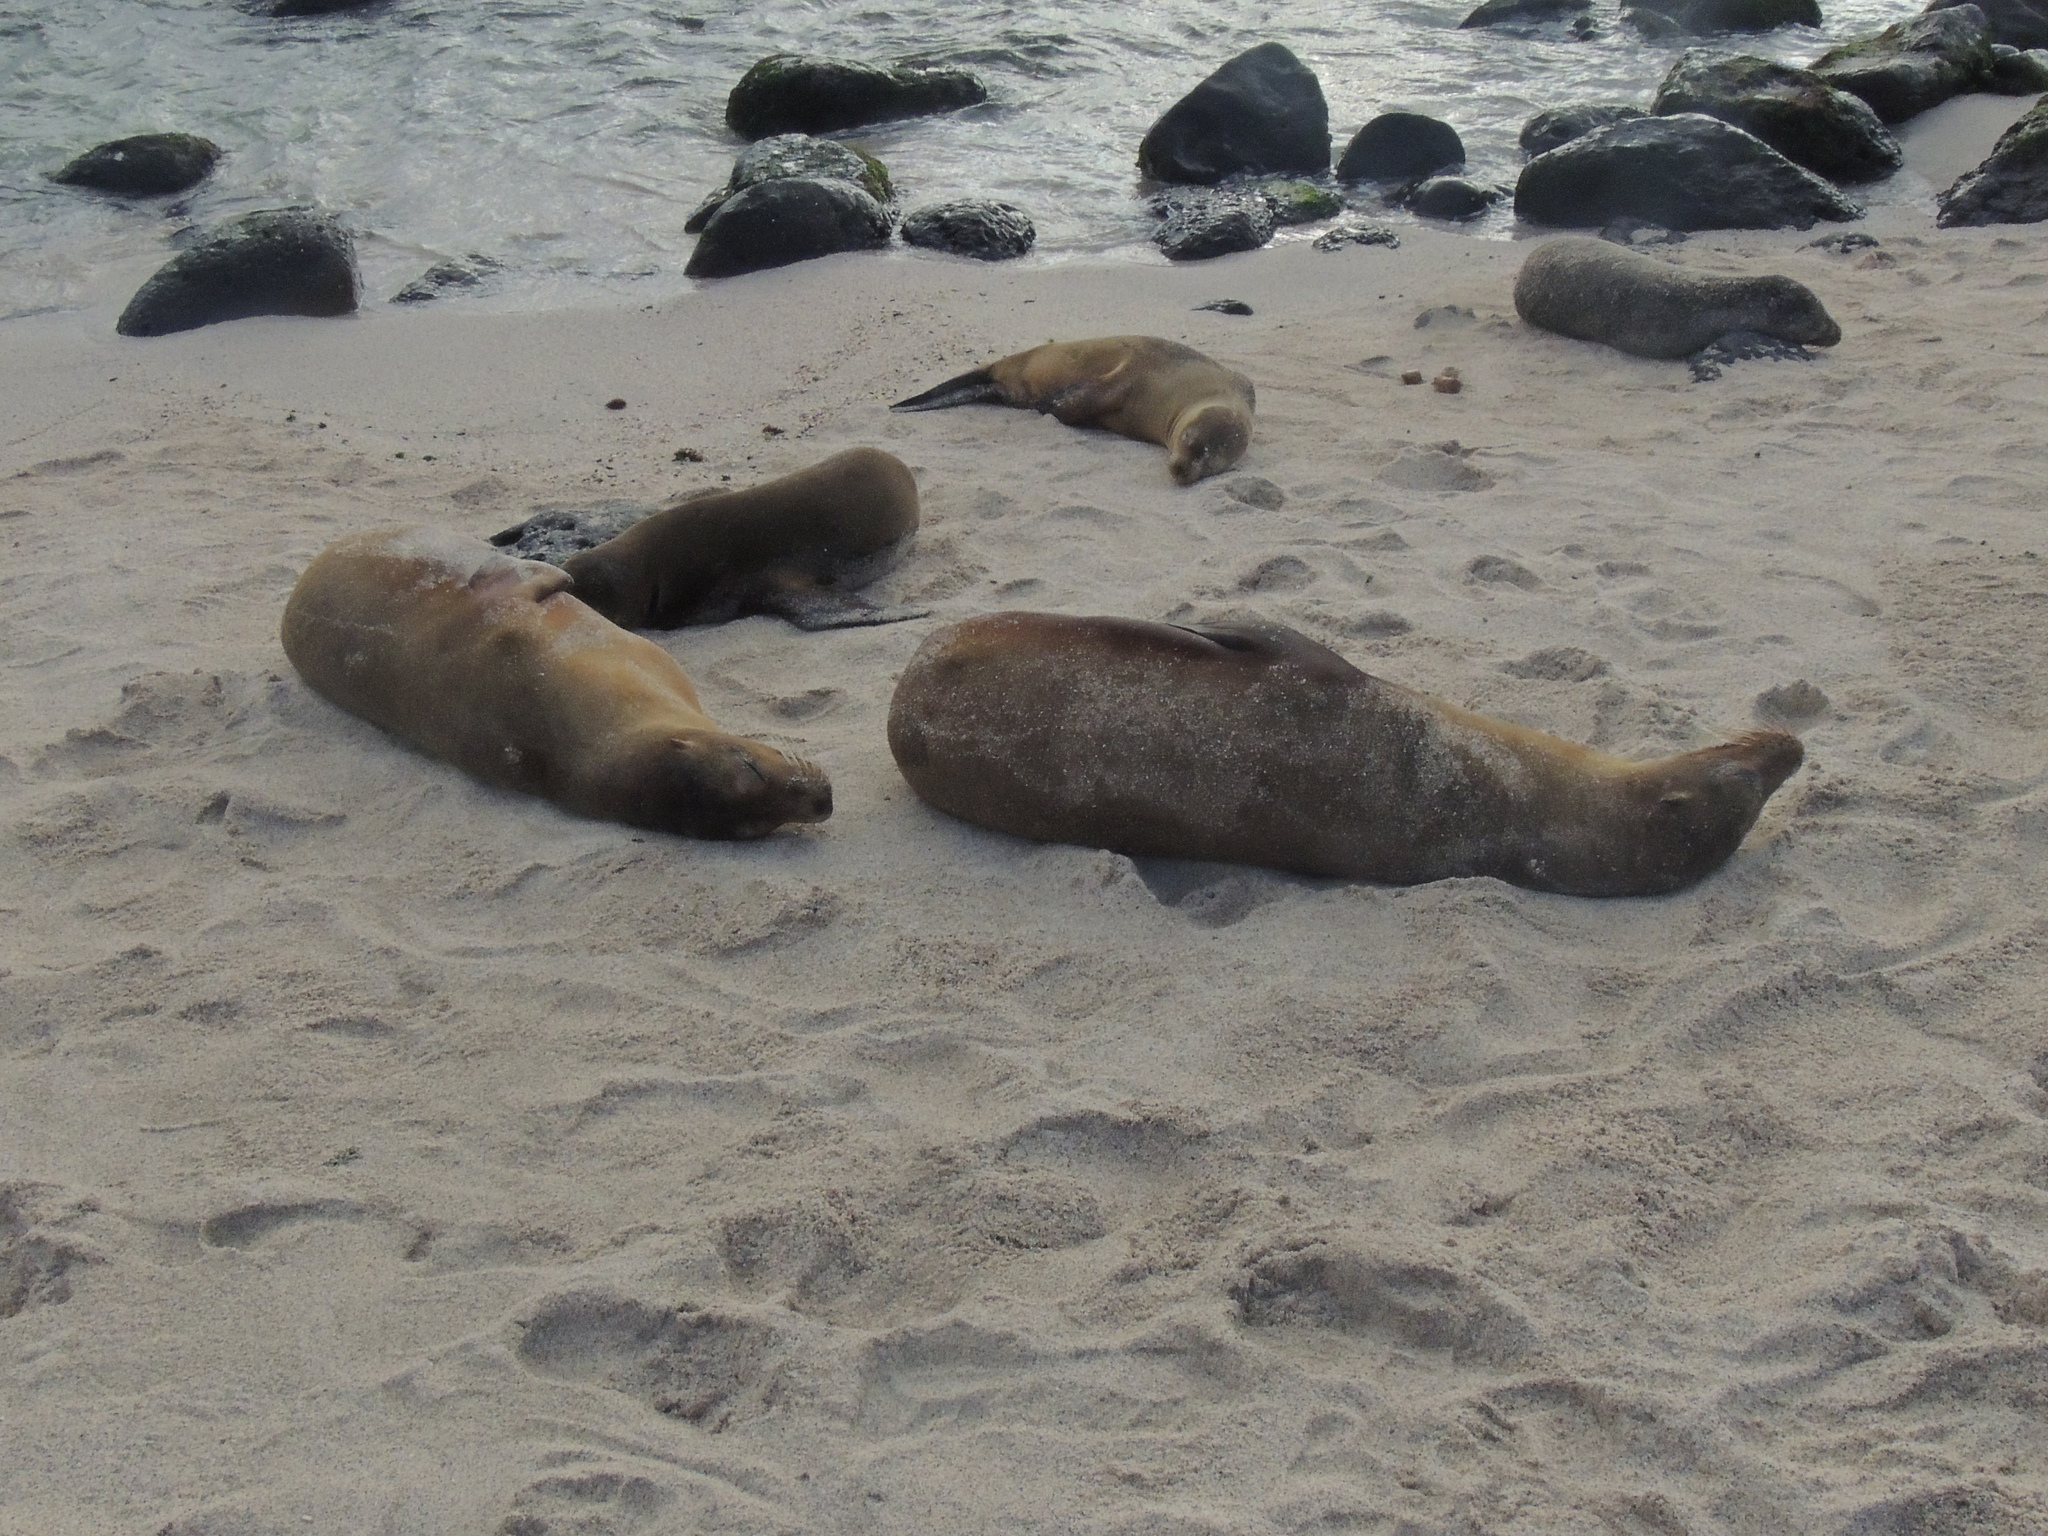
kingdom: Animalia
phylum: Chordata
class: Mammalia
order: Carnivora
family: Otariidae
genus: Zalophus
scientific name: Zalophus wollebaeki
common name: Galapagos sea lion
